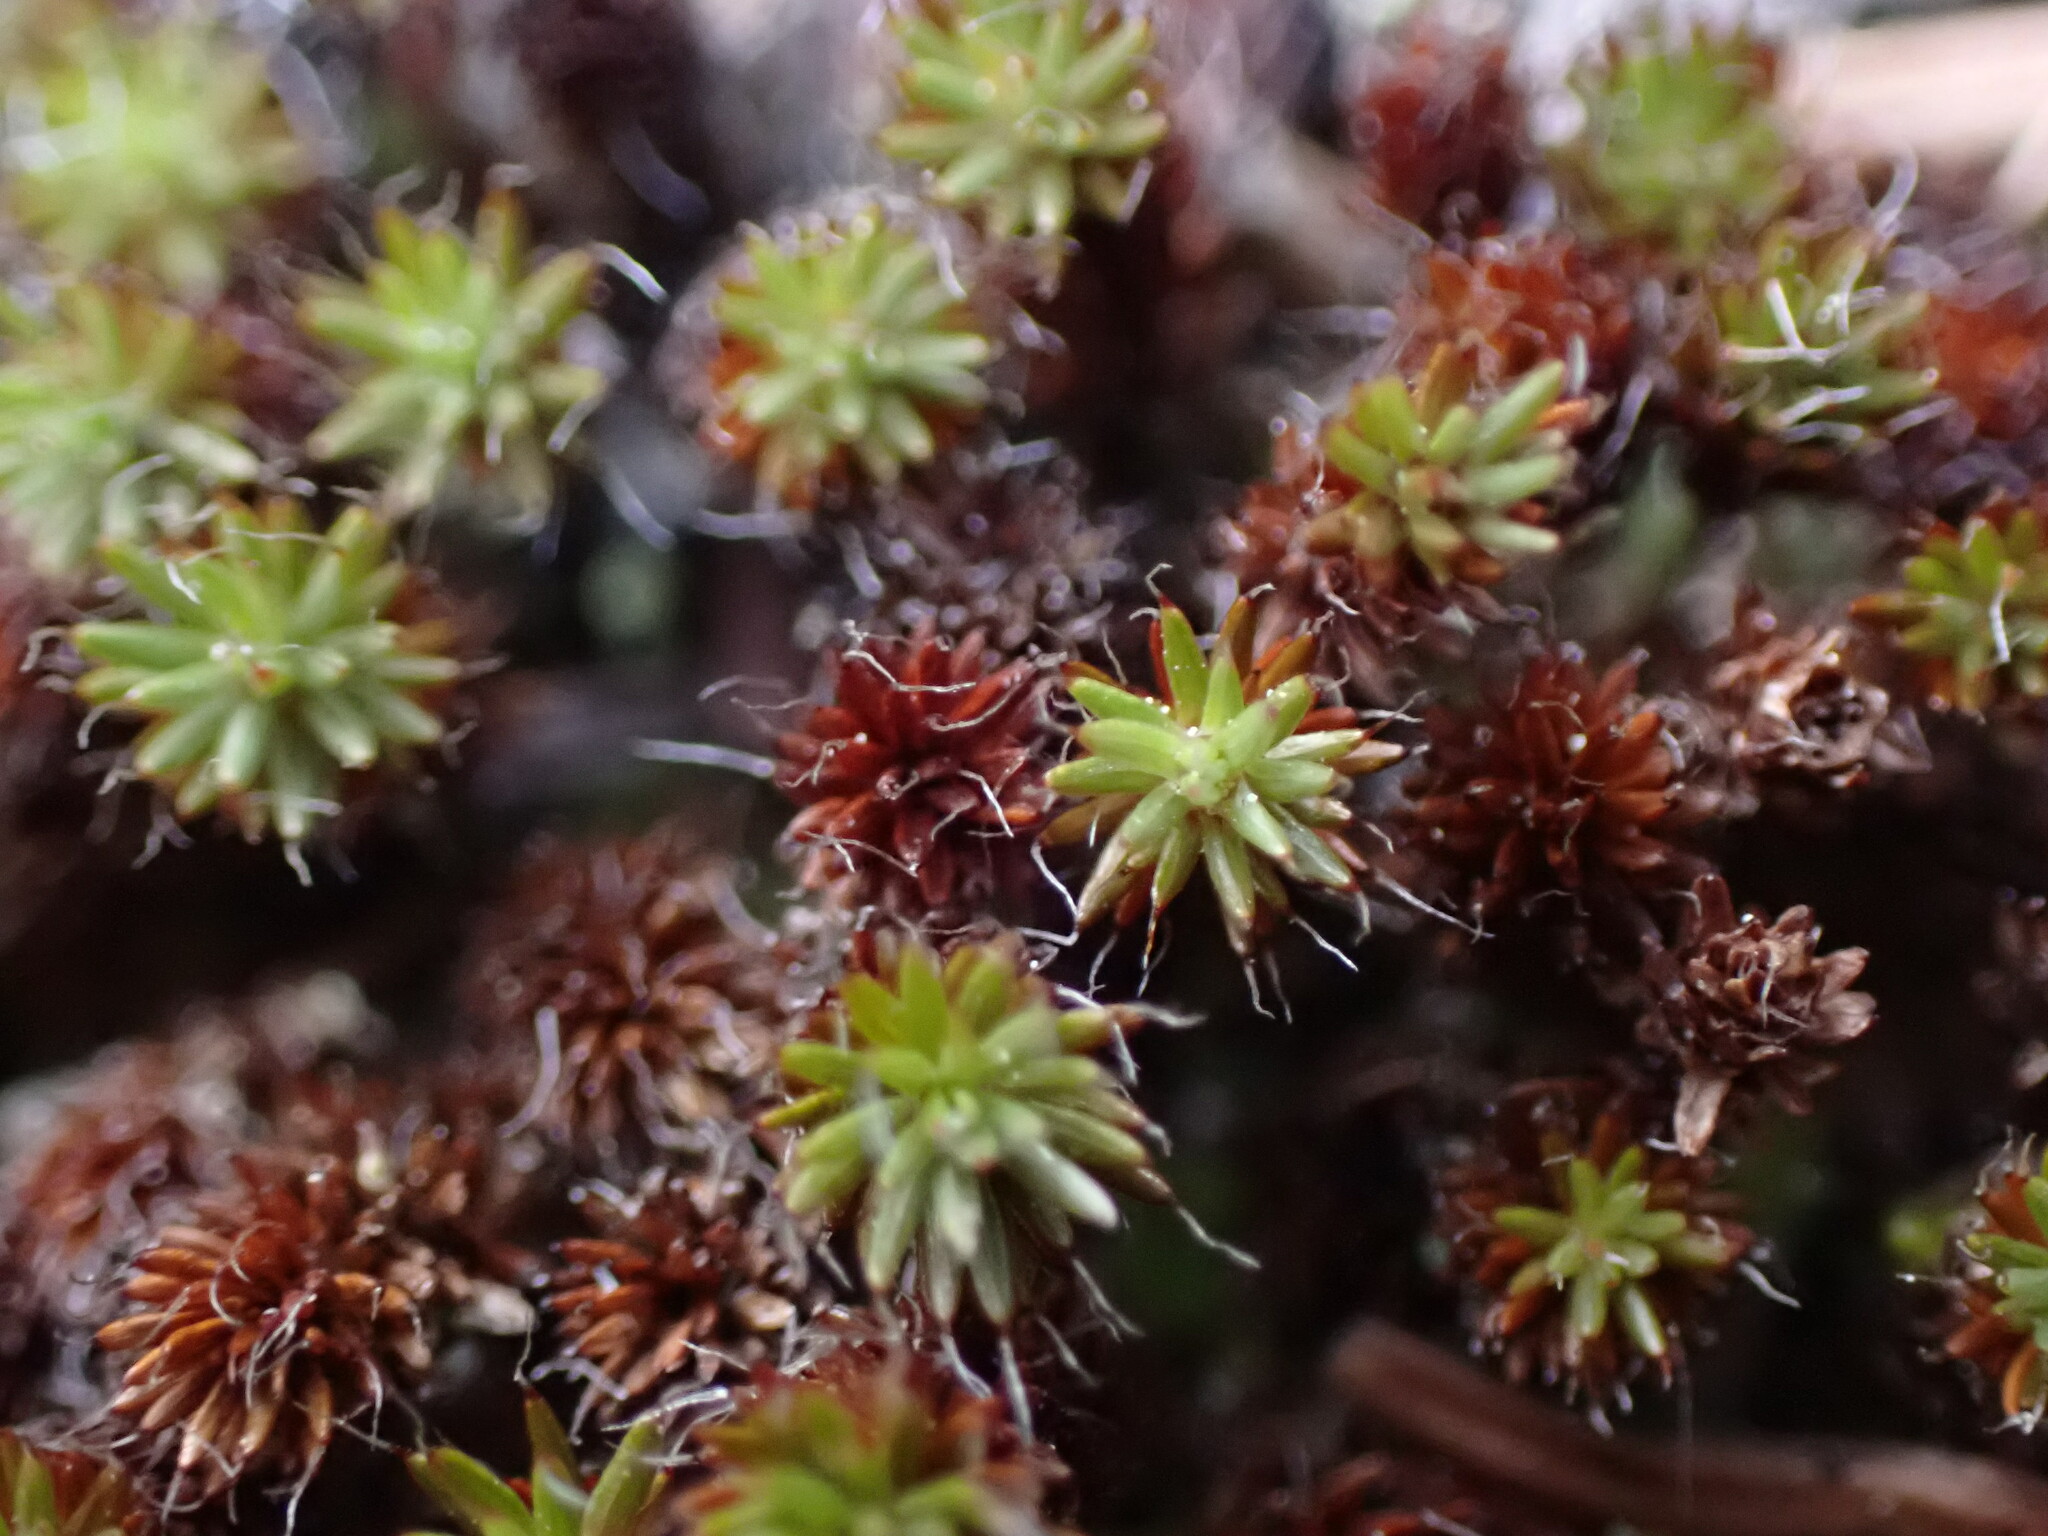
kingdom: Plantae
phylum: Bryophyta
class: Polytrichopsida
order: Polytrichales
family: Polytrichaceae
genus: Polytrichum
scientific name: Polytrichum piliferum
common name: Bristly haircap
